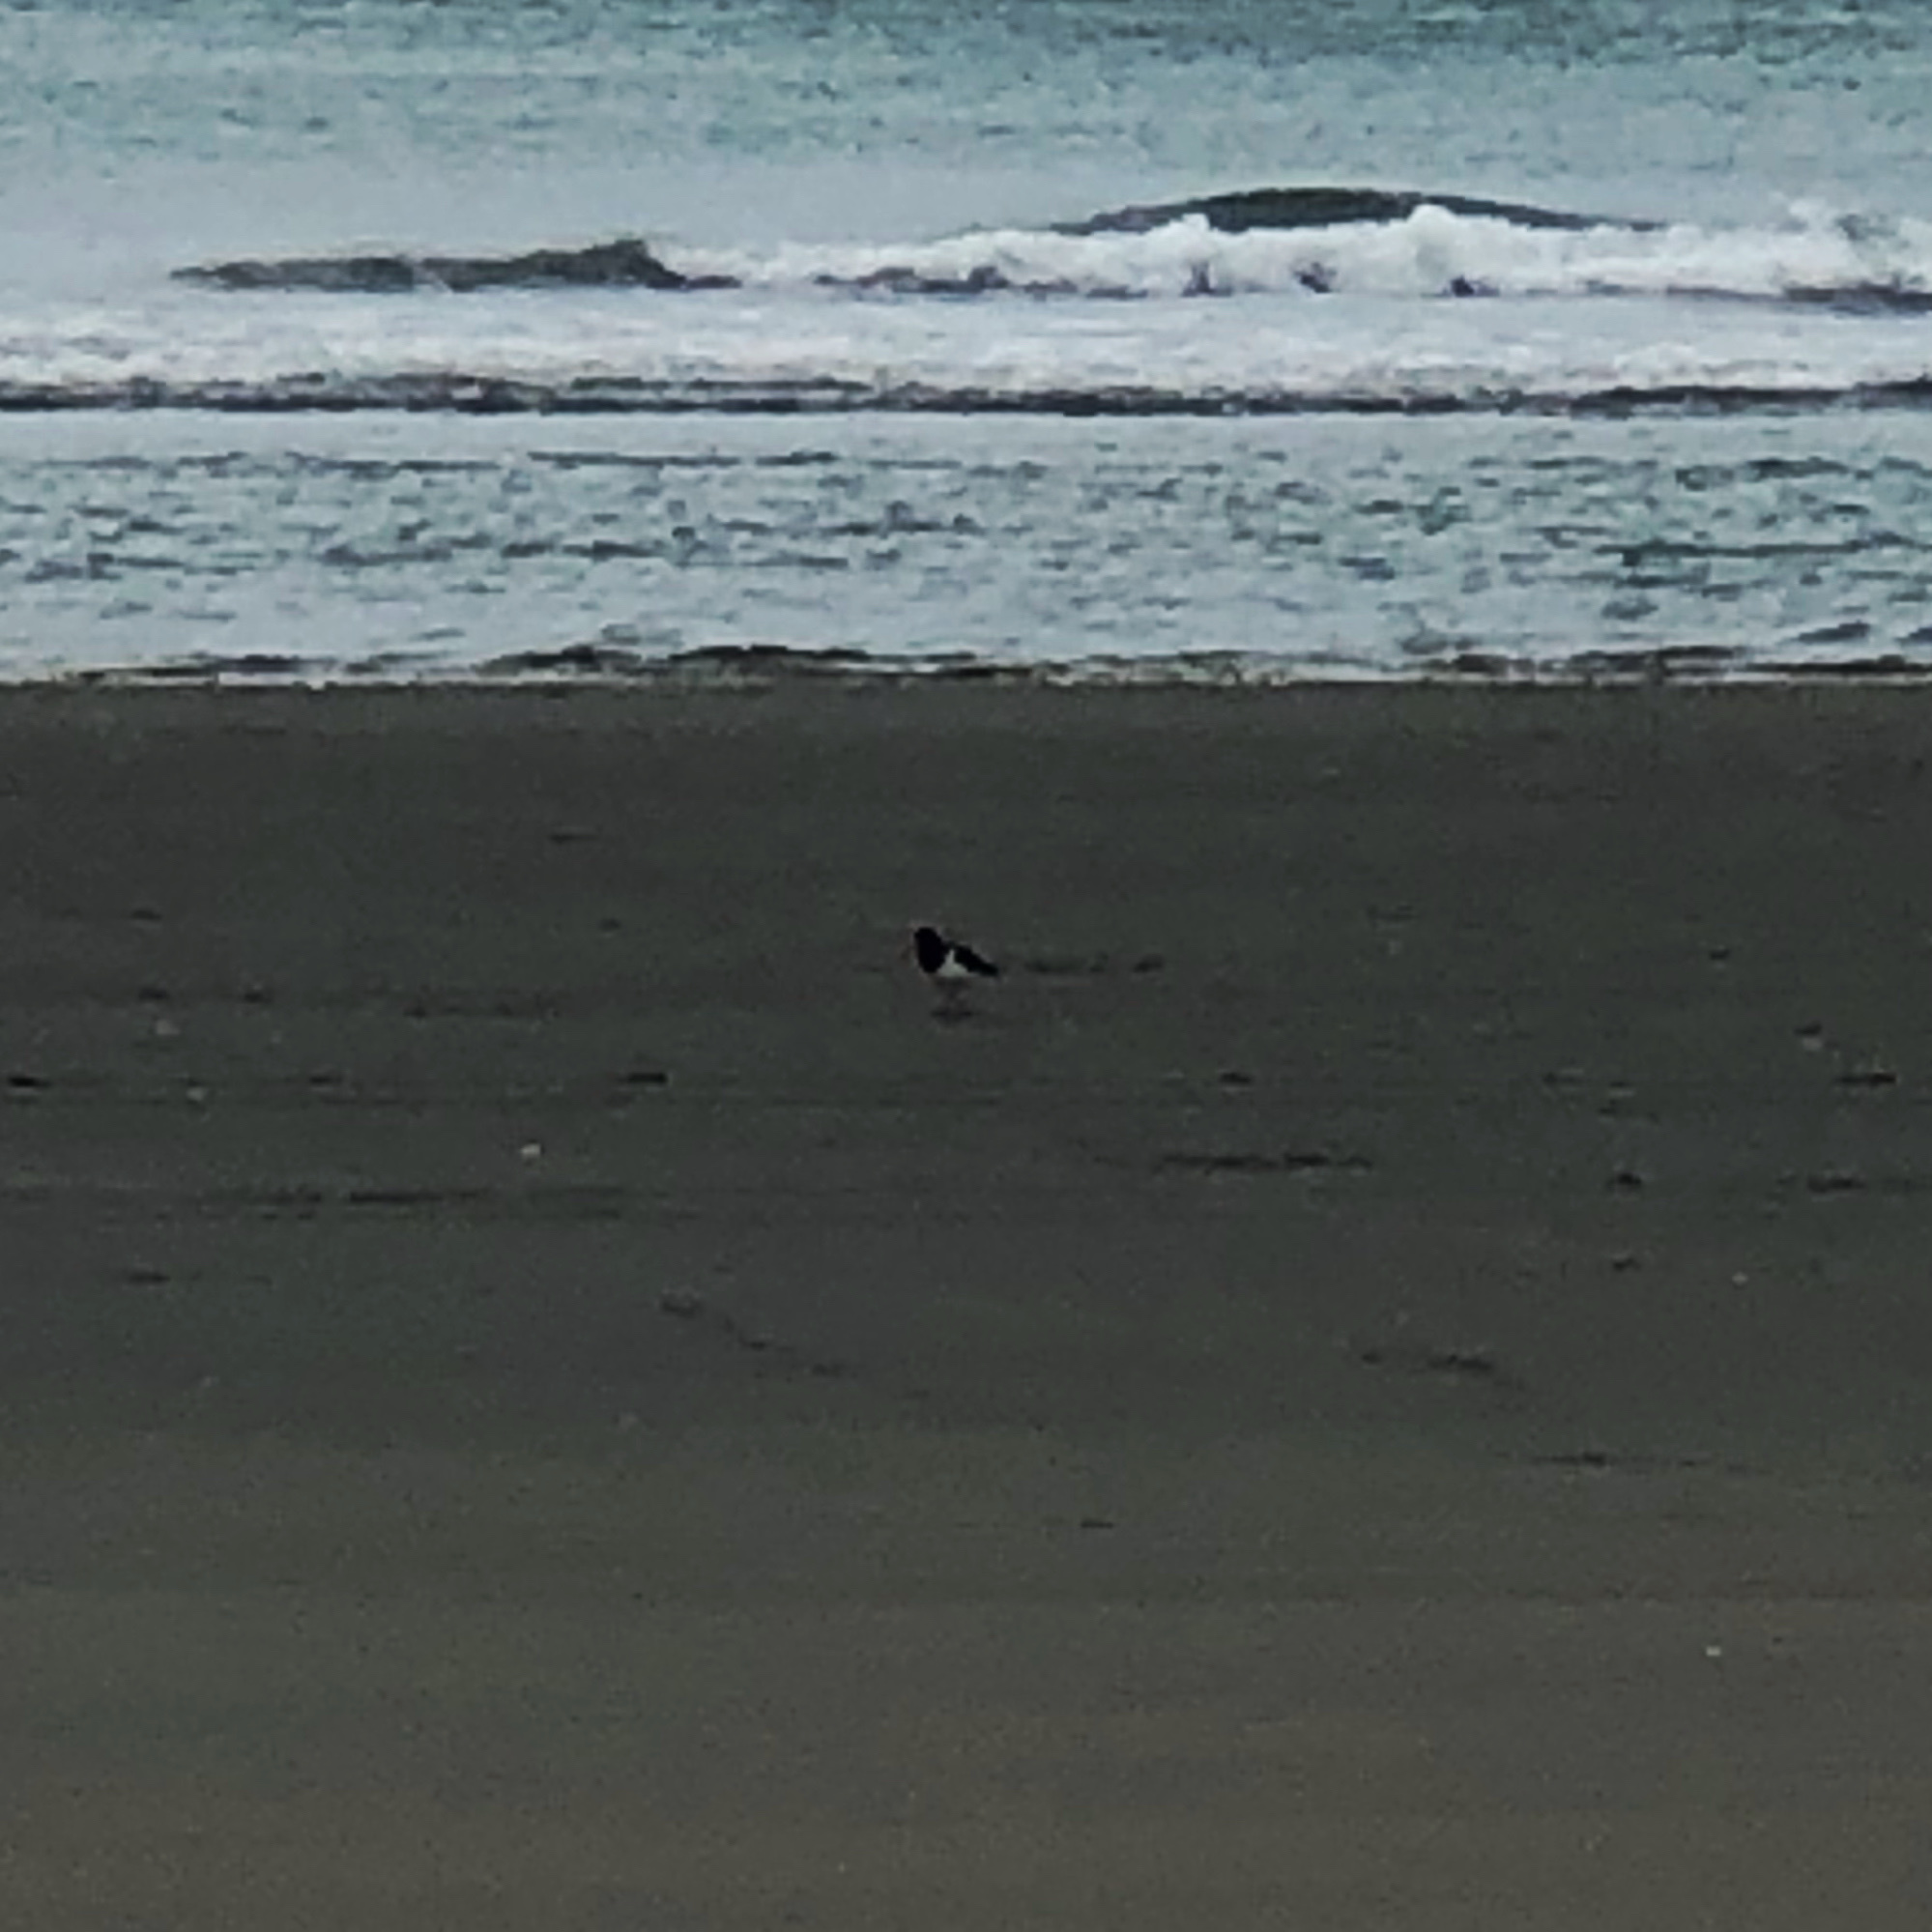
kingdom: Animalia
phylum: Chordata
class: Aves
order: Charadriiformes
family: Haematopodidae
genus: Haematopus
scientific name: Haematopus finschi
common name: South island oystercatcher
